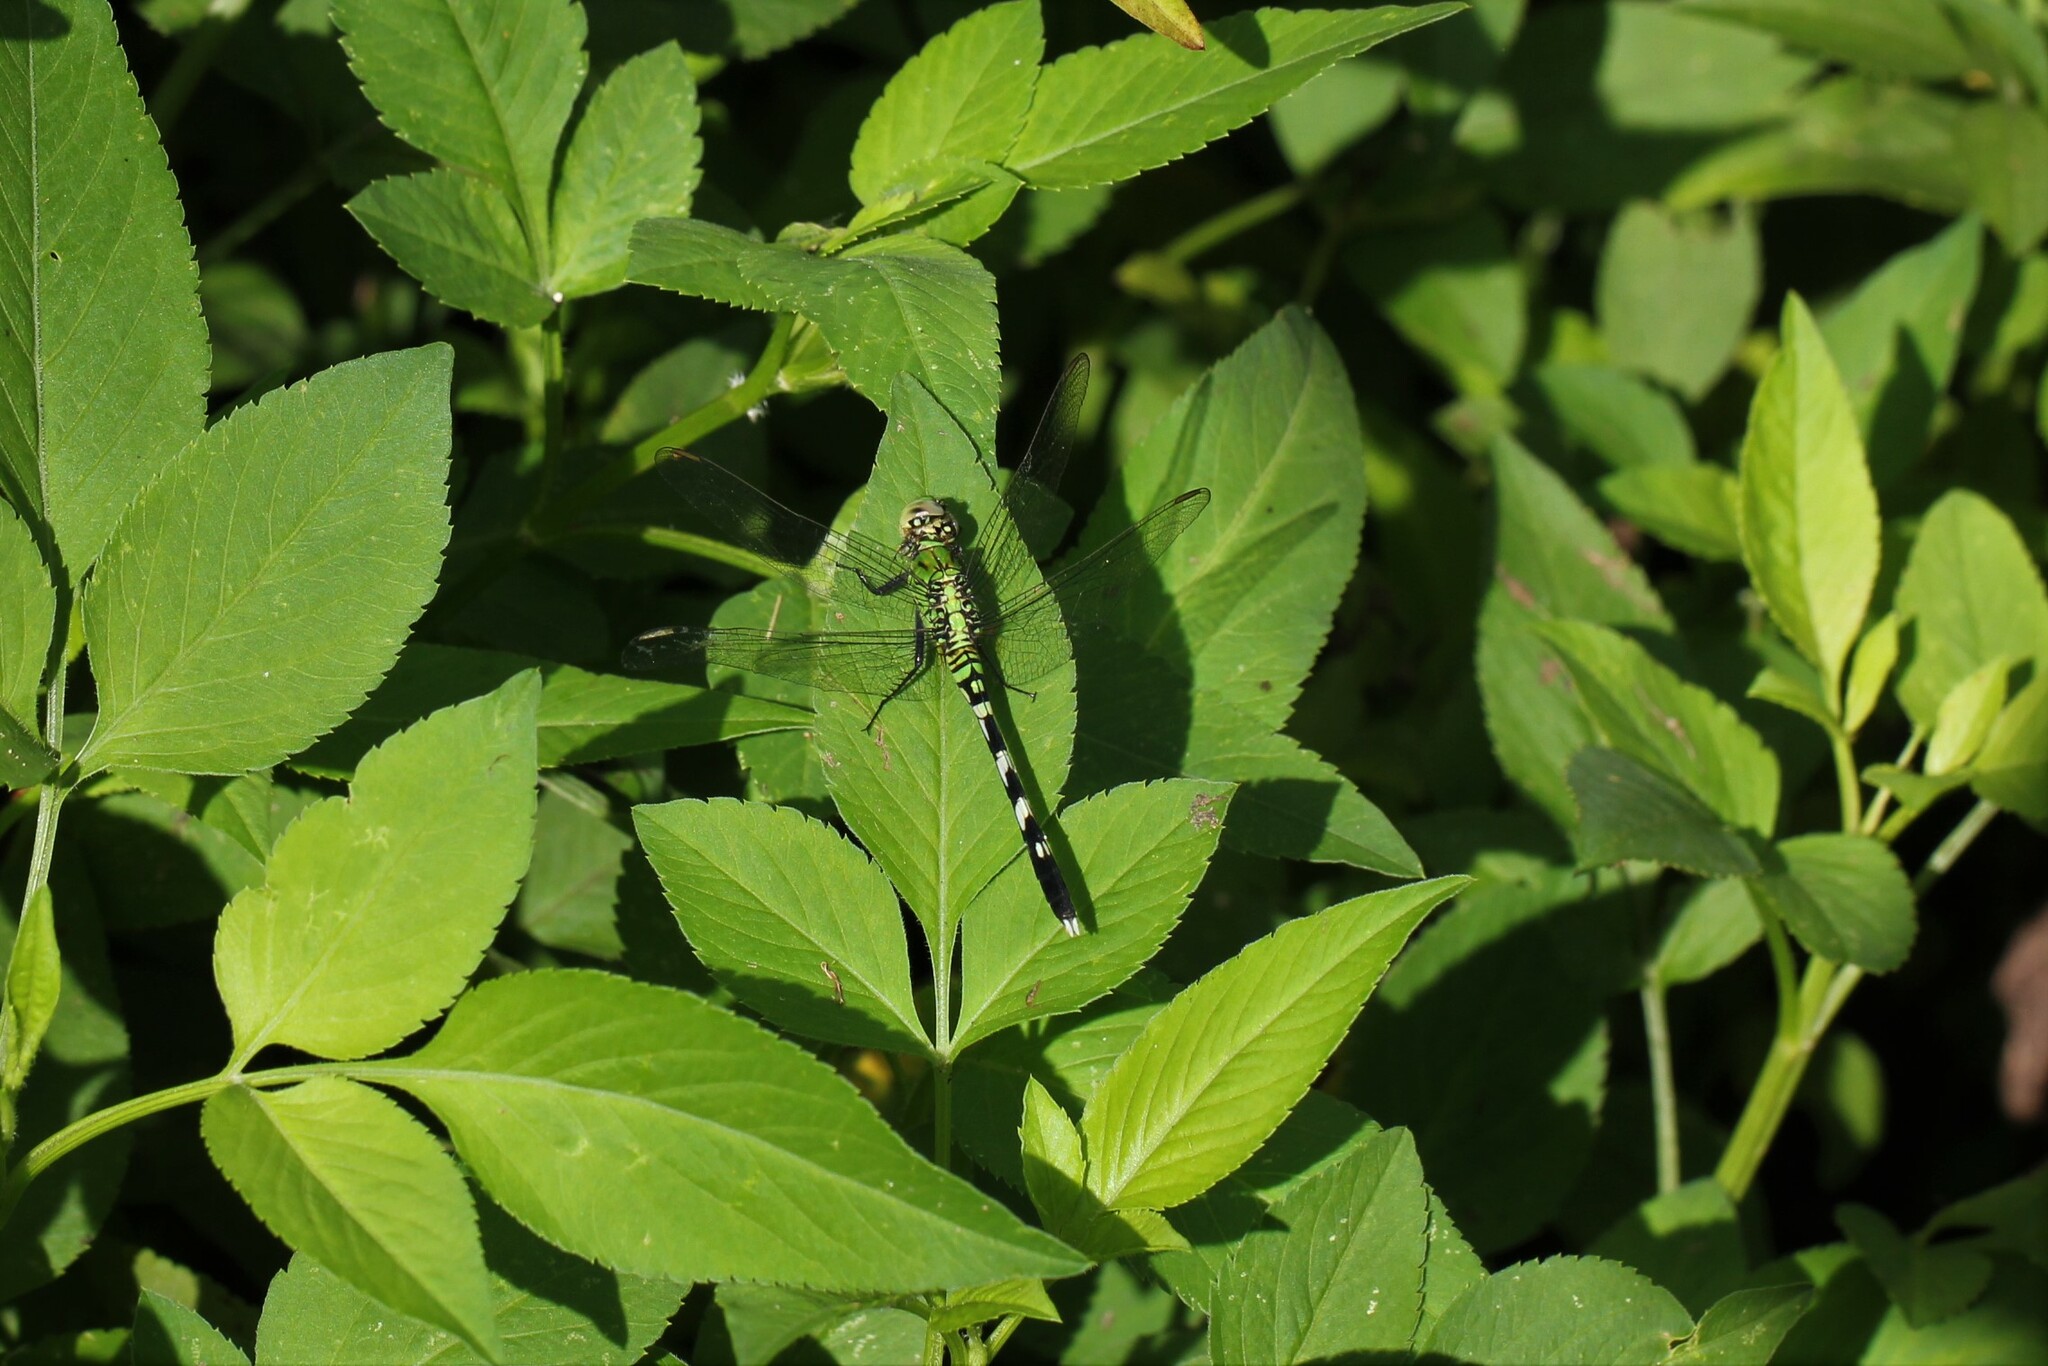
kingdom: Animalia
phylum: Arthropoda
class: Insecta
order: Odonata
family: Libellulidae
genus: Erythemis
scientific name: Erythemis simplicicollis
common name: Eastern pondhawk
